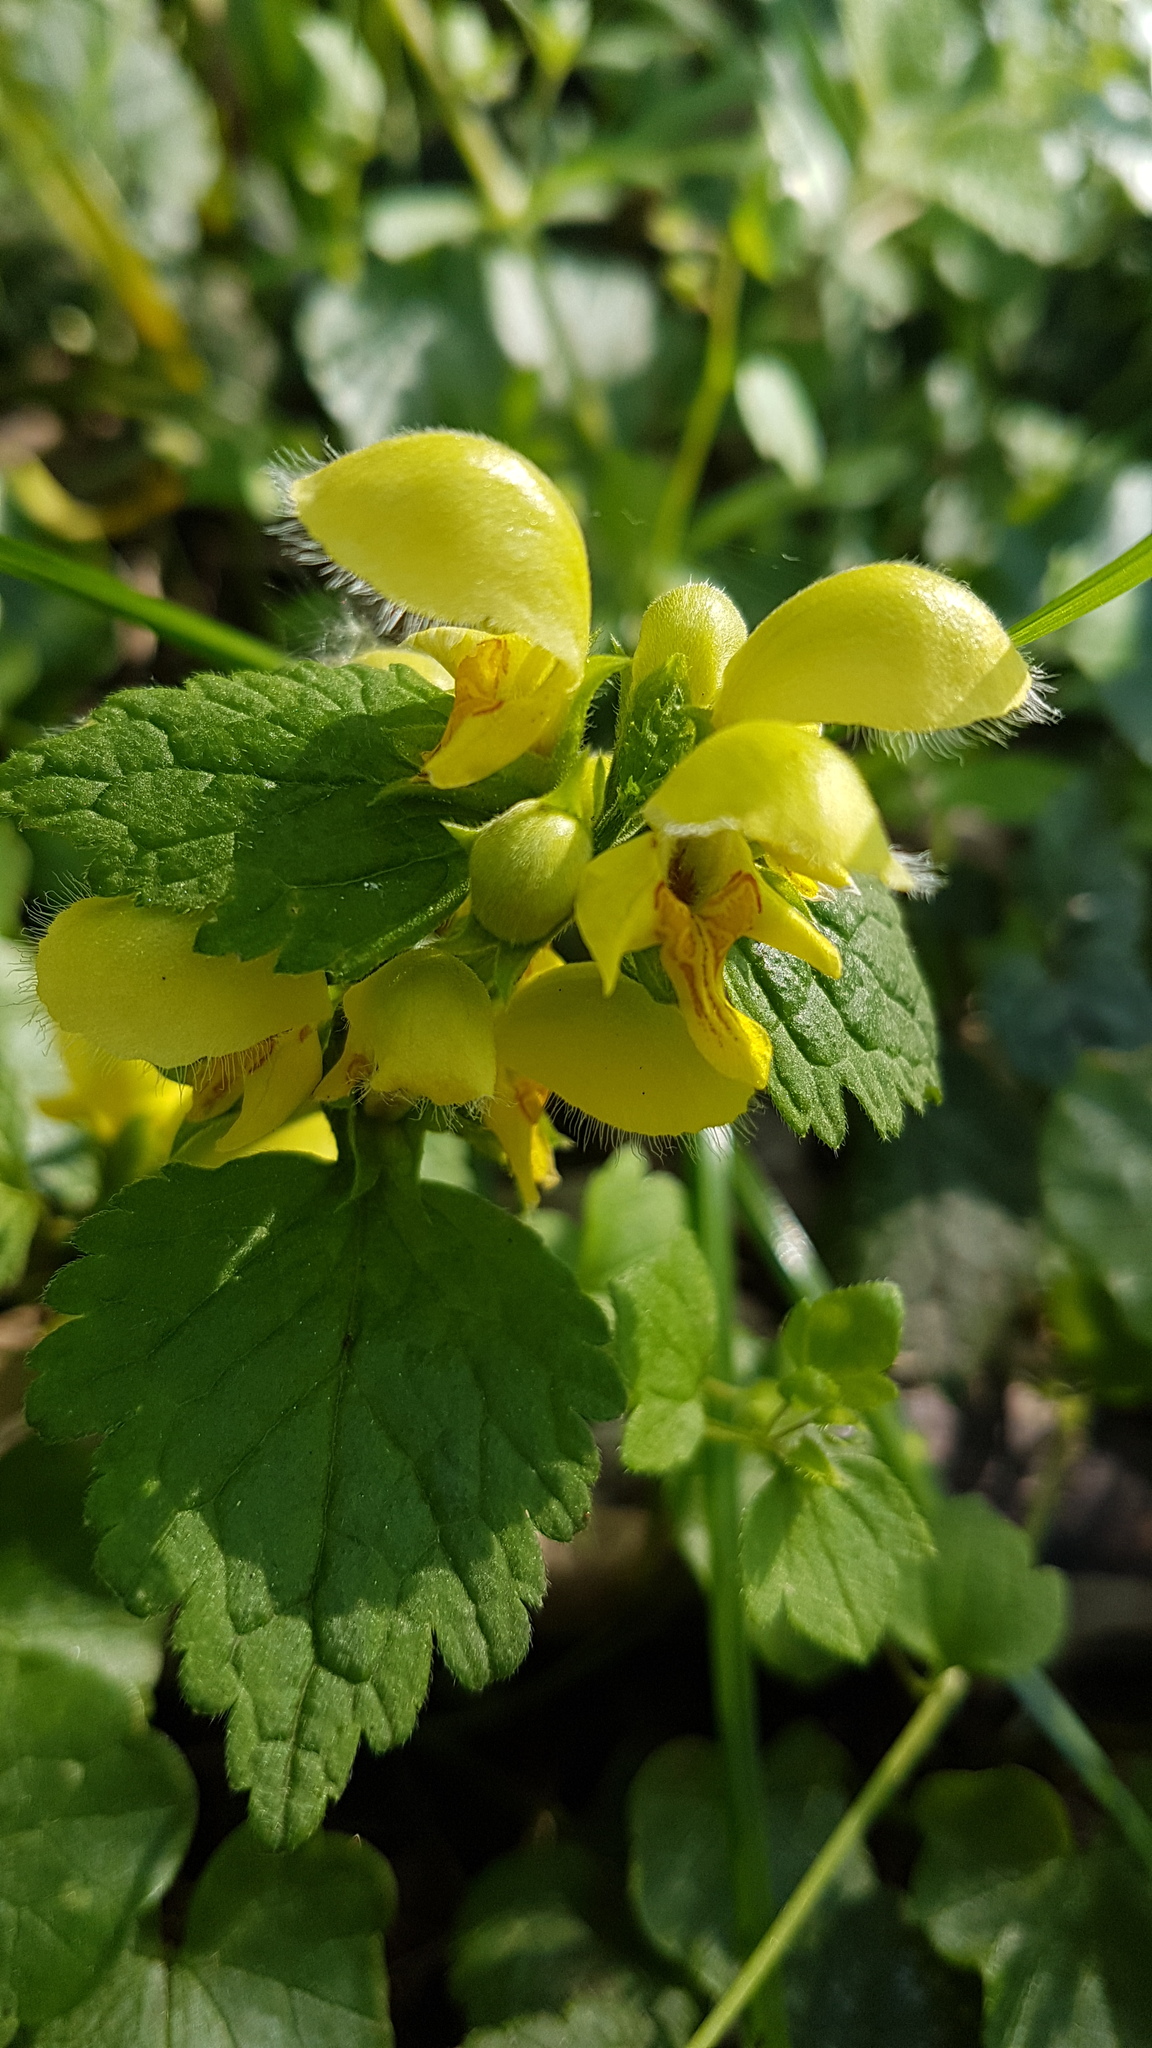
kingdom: Plantae
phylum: Tracheophyta
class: Magnoliopsida
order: Lamiales
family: Lamiaceae
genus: Lamium
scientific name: Lamium galeobdolon
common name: Yellow archangel
